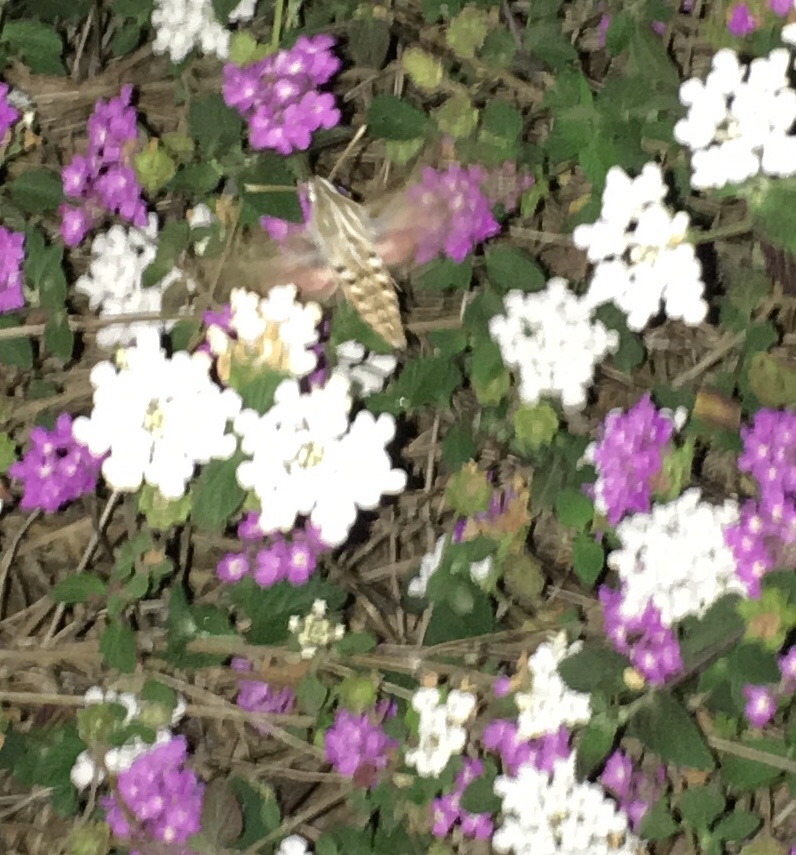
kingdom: Animalia
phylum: Arthropoda
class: Insecta
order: Lepidoptera
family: Sphingidae
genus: Hyles
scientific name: Hyles lineata
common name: White-lined sphinx
